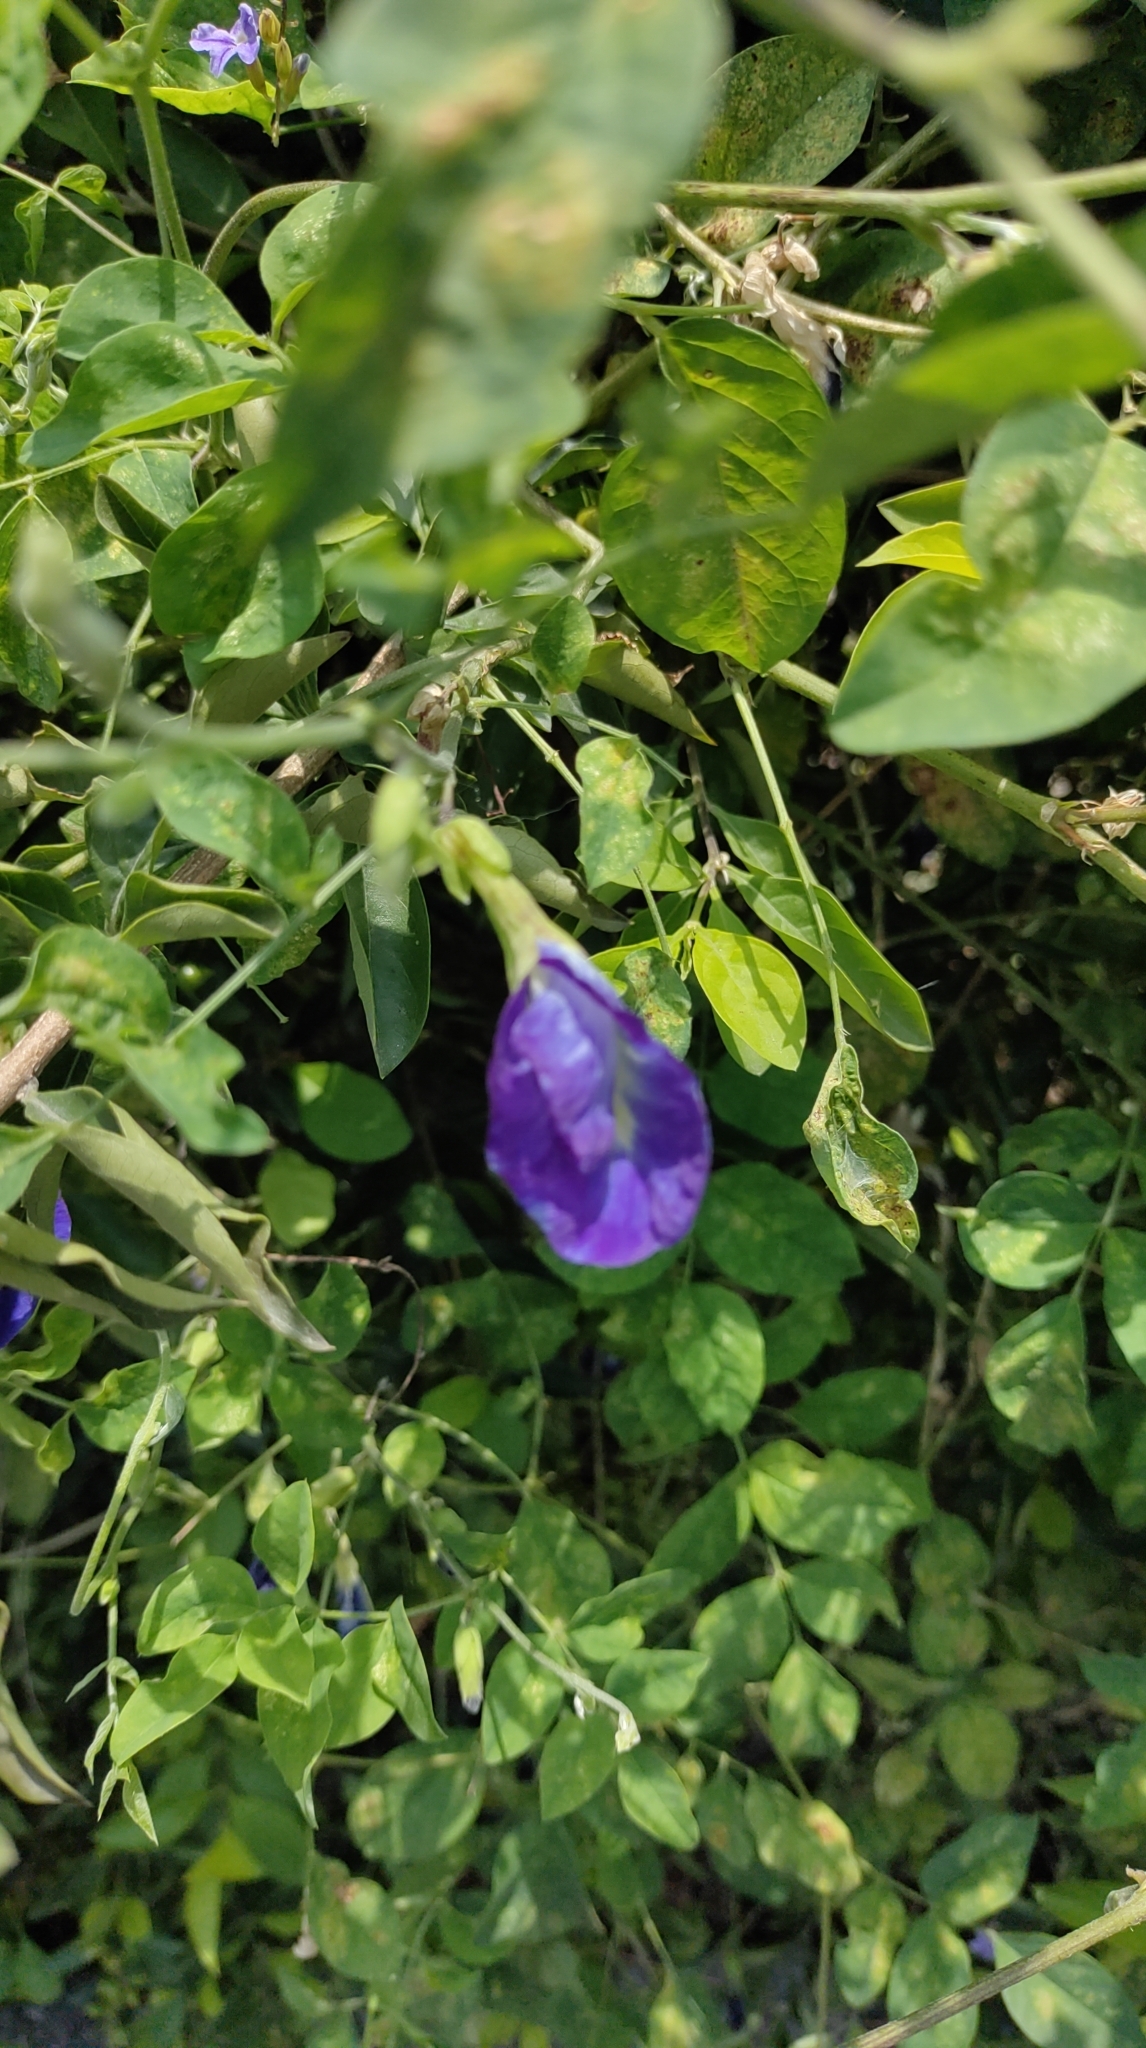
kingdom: Plantae
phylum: Tracheophyta
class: Magnoliopsida
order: Fabales
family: Fabaceae
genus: Clitoria
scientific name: Clitoria ternatea
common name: Asian pigeonwings
